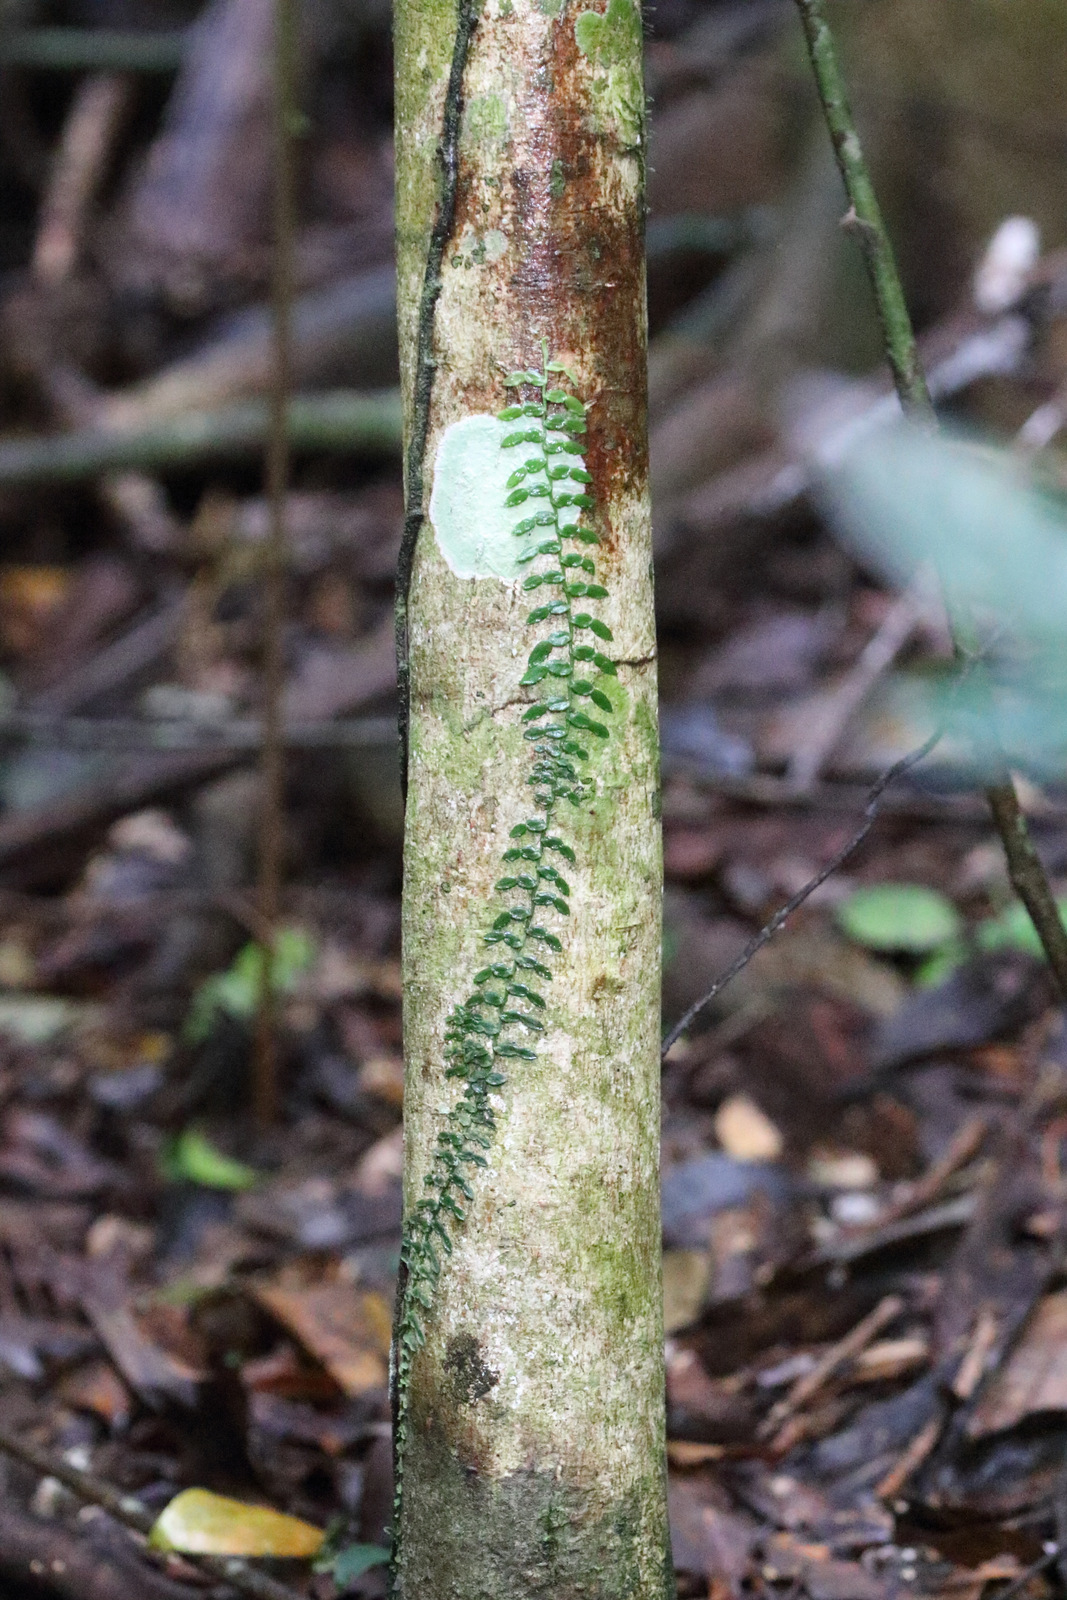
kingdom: Plantae
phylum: Tracheophyta
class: Liliopsida
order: Alismatales
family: Araceae
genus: Pothos
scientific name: Pothos longipes
